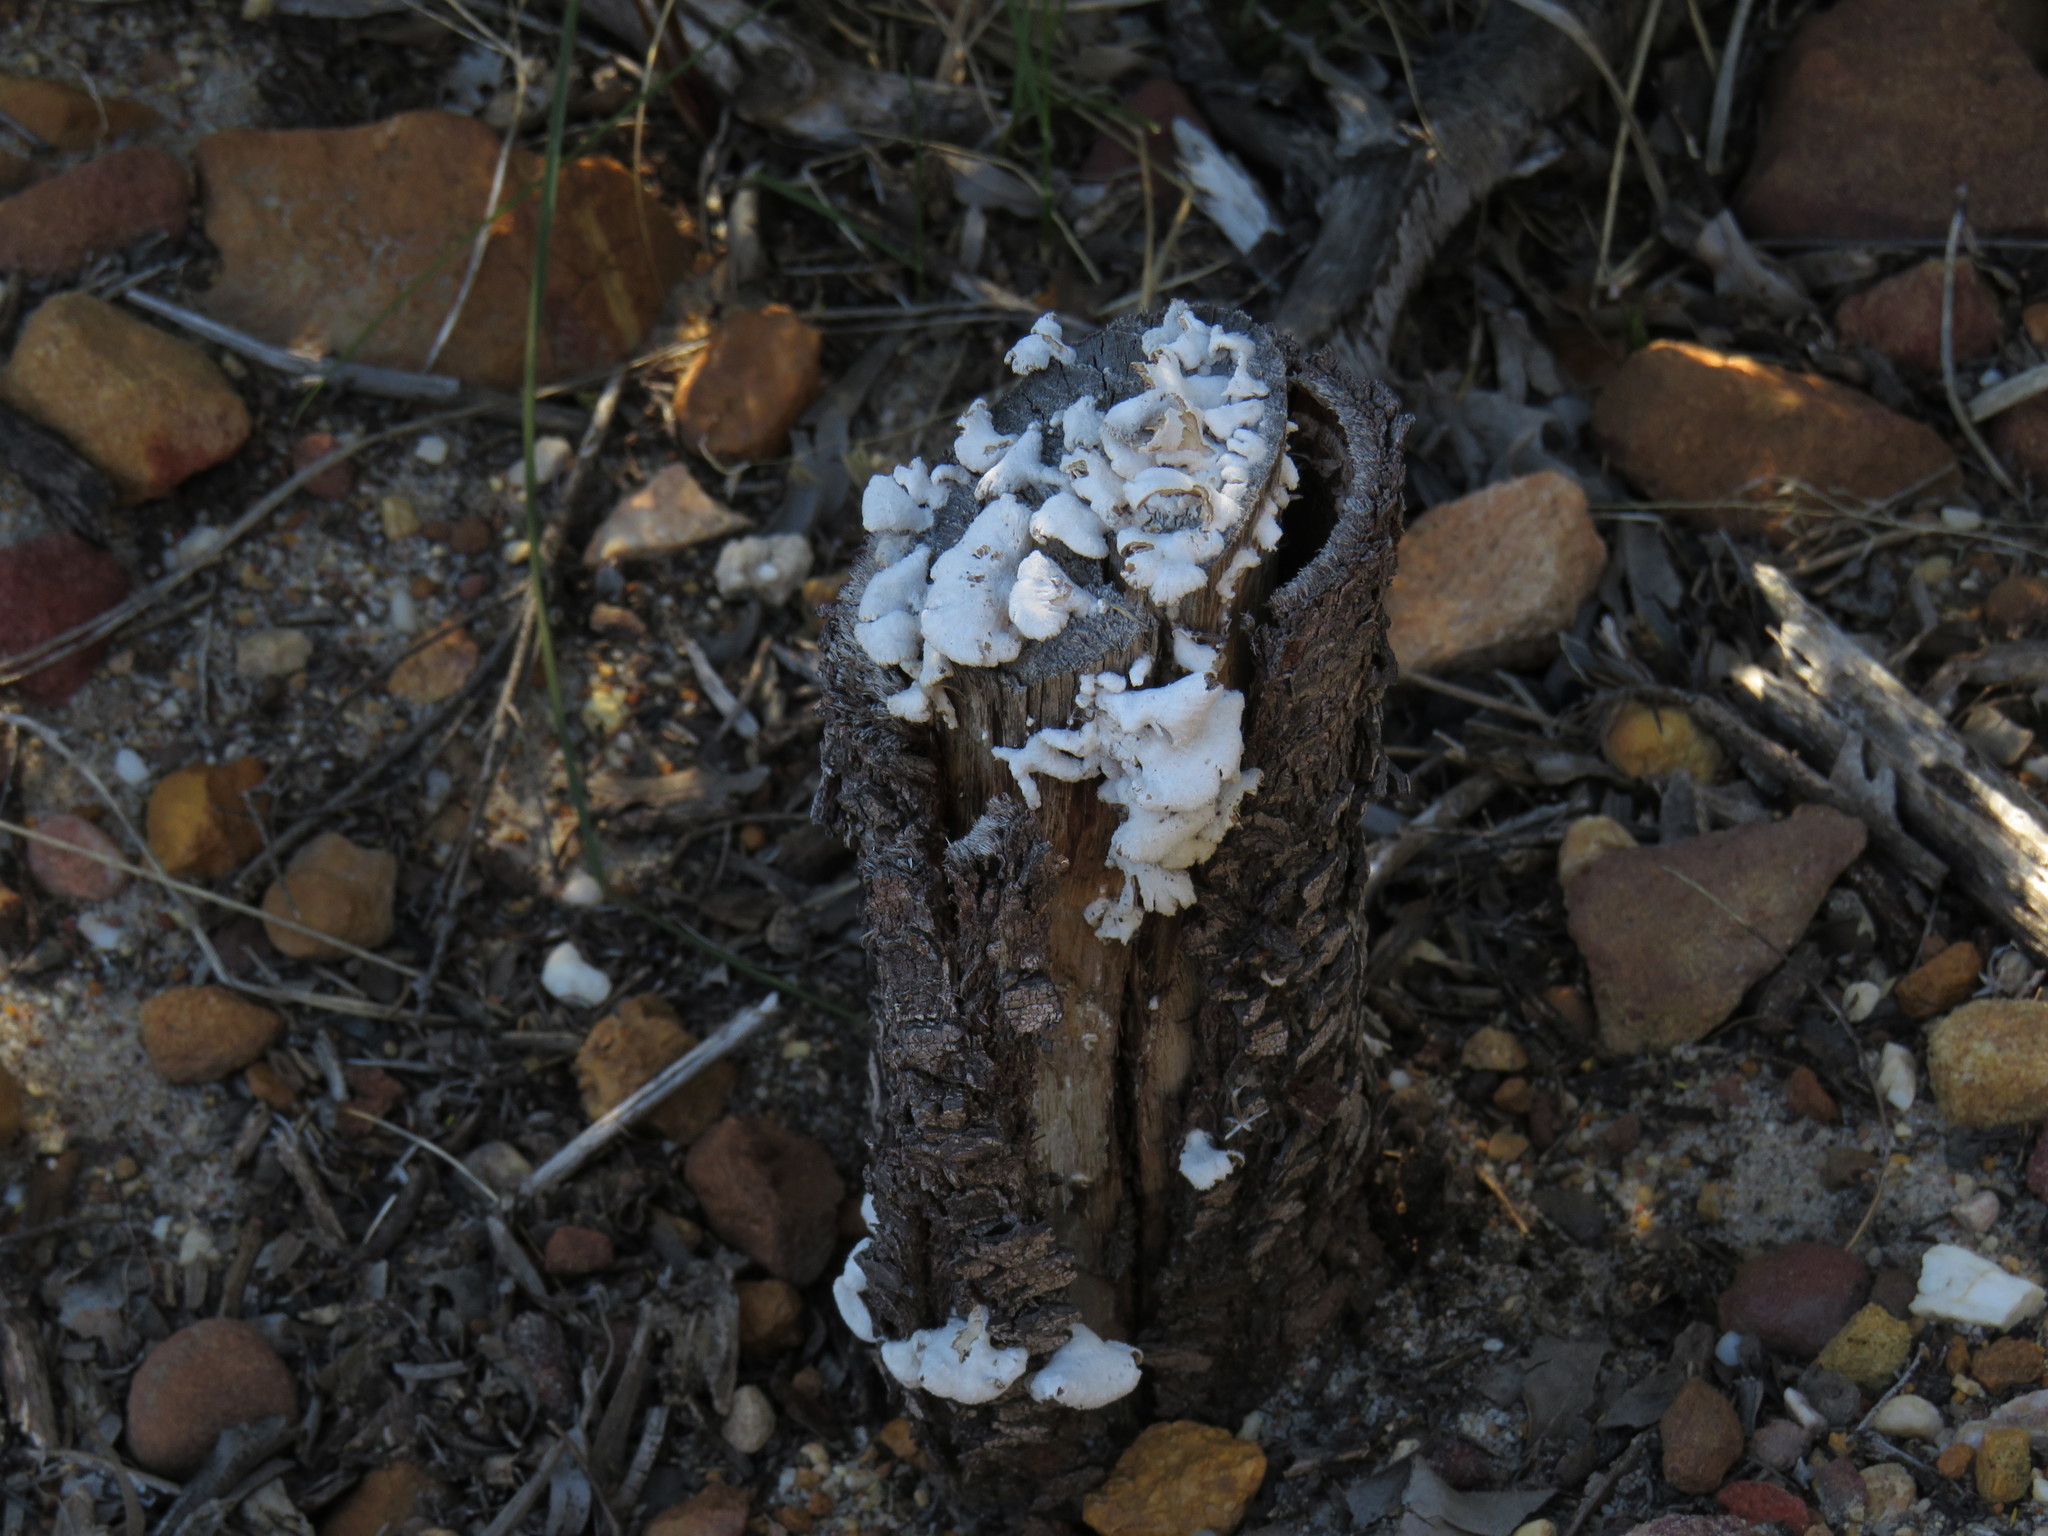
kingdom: Fungi
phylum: Basidiomycota
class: Agaricomycetes
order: Agaricales
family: Schizophyllaceae
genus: Schizophyllum
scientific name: Schizophyllum commune
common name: Common porecrust
